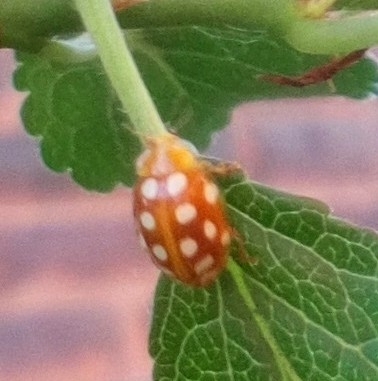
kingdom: Animalia
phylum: Arthropoda
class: Insecta
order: Coleoptera
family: Coccinellidae
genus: Halyzia
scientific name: Halyzia sedecimguttata
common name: Orange ladybird
